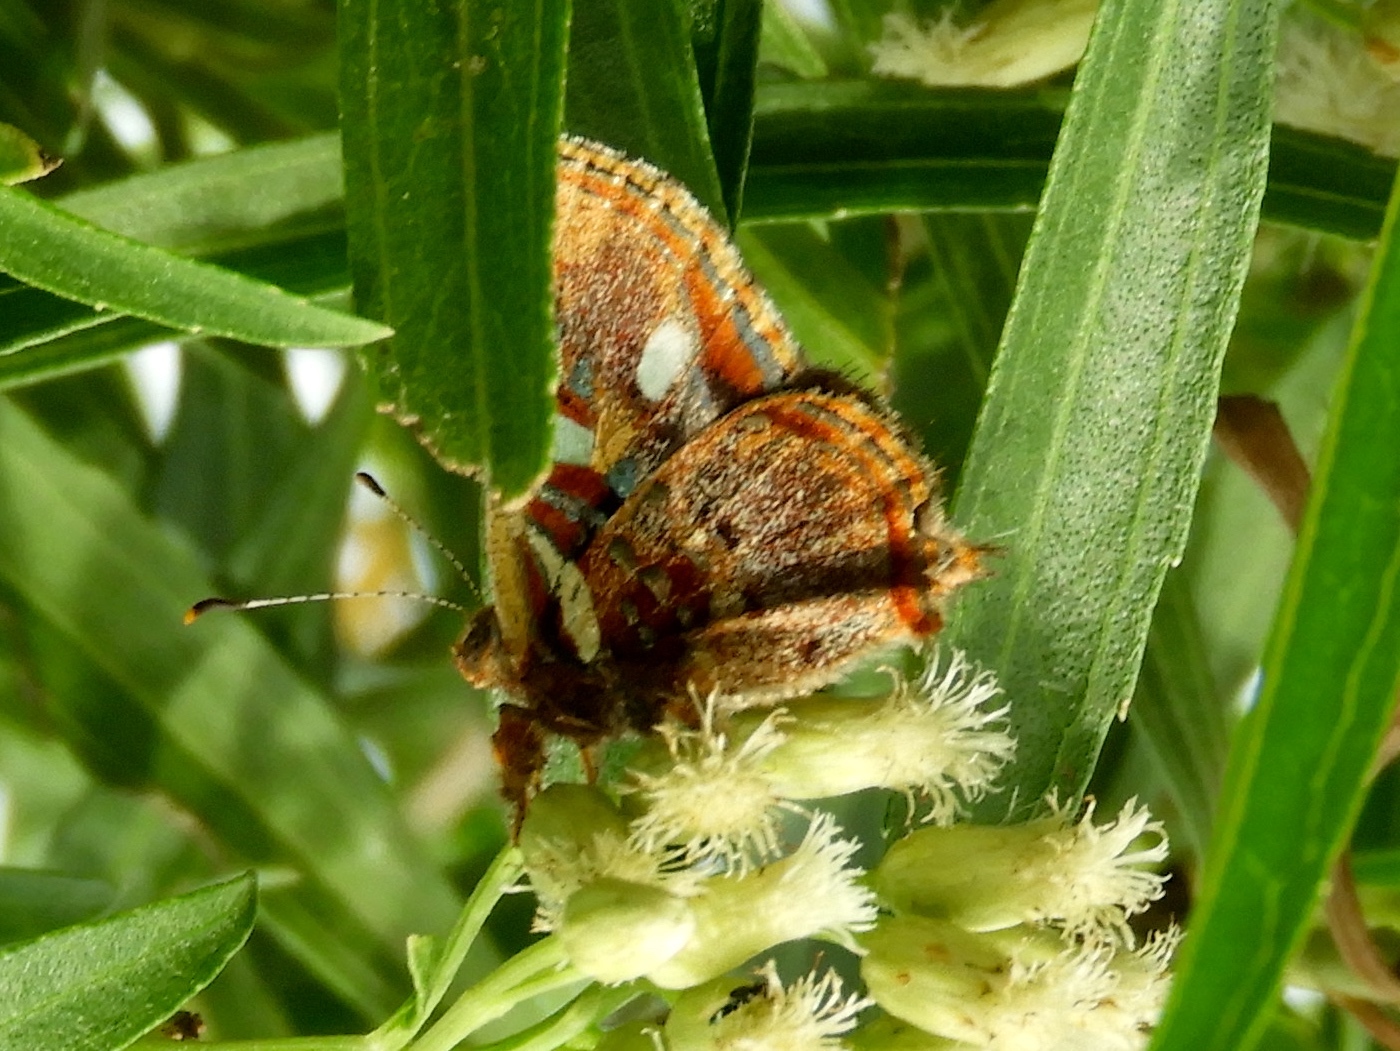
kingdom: Animalia
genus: Anteros
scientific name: Anteros carausius
